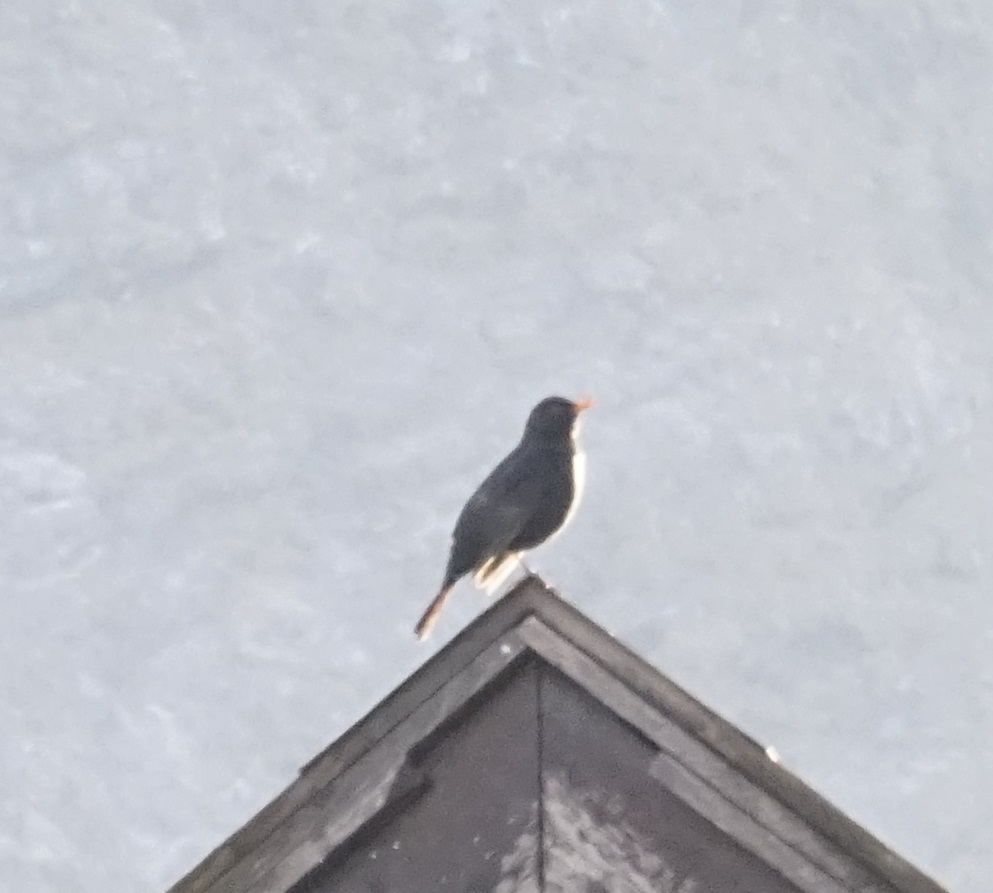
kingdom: Animalia
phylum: Chordata
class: Aves
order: Passeriformes
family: Turdidae
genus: Turdus
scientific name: Turdus merula
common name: Common blackbird
